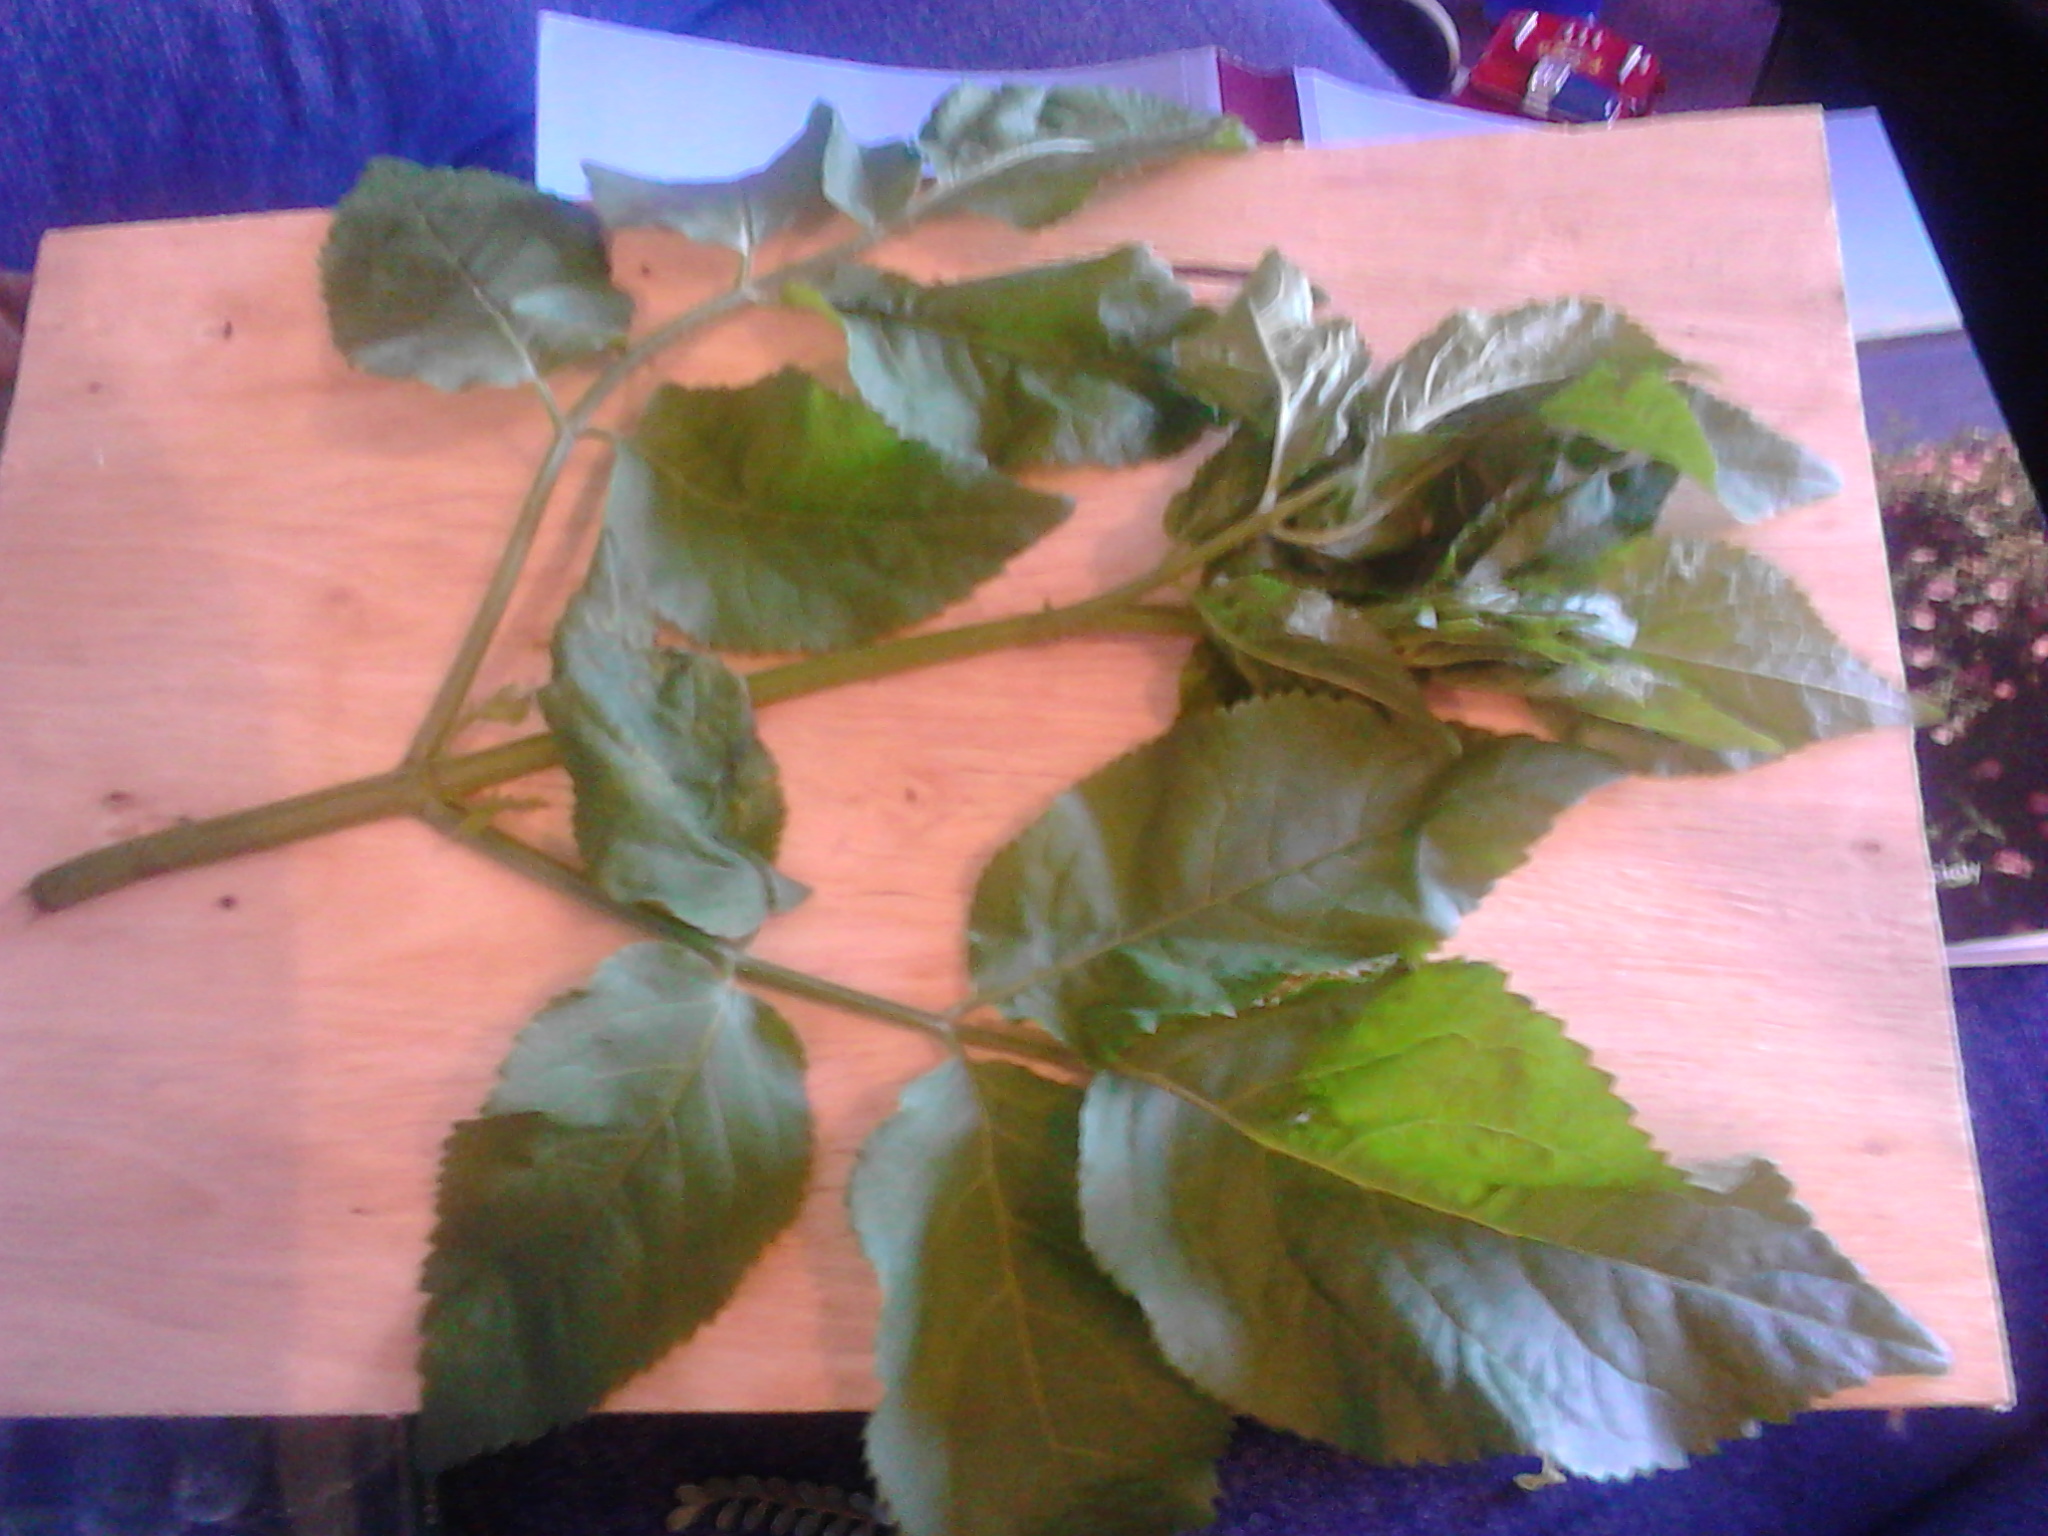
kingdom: Plantae
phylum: Tracheophyta
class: Magnoliopsida
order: Dipsacales
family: Viburnaceae
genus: Sambucus
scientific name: Sambucus nigra
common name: Elder
